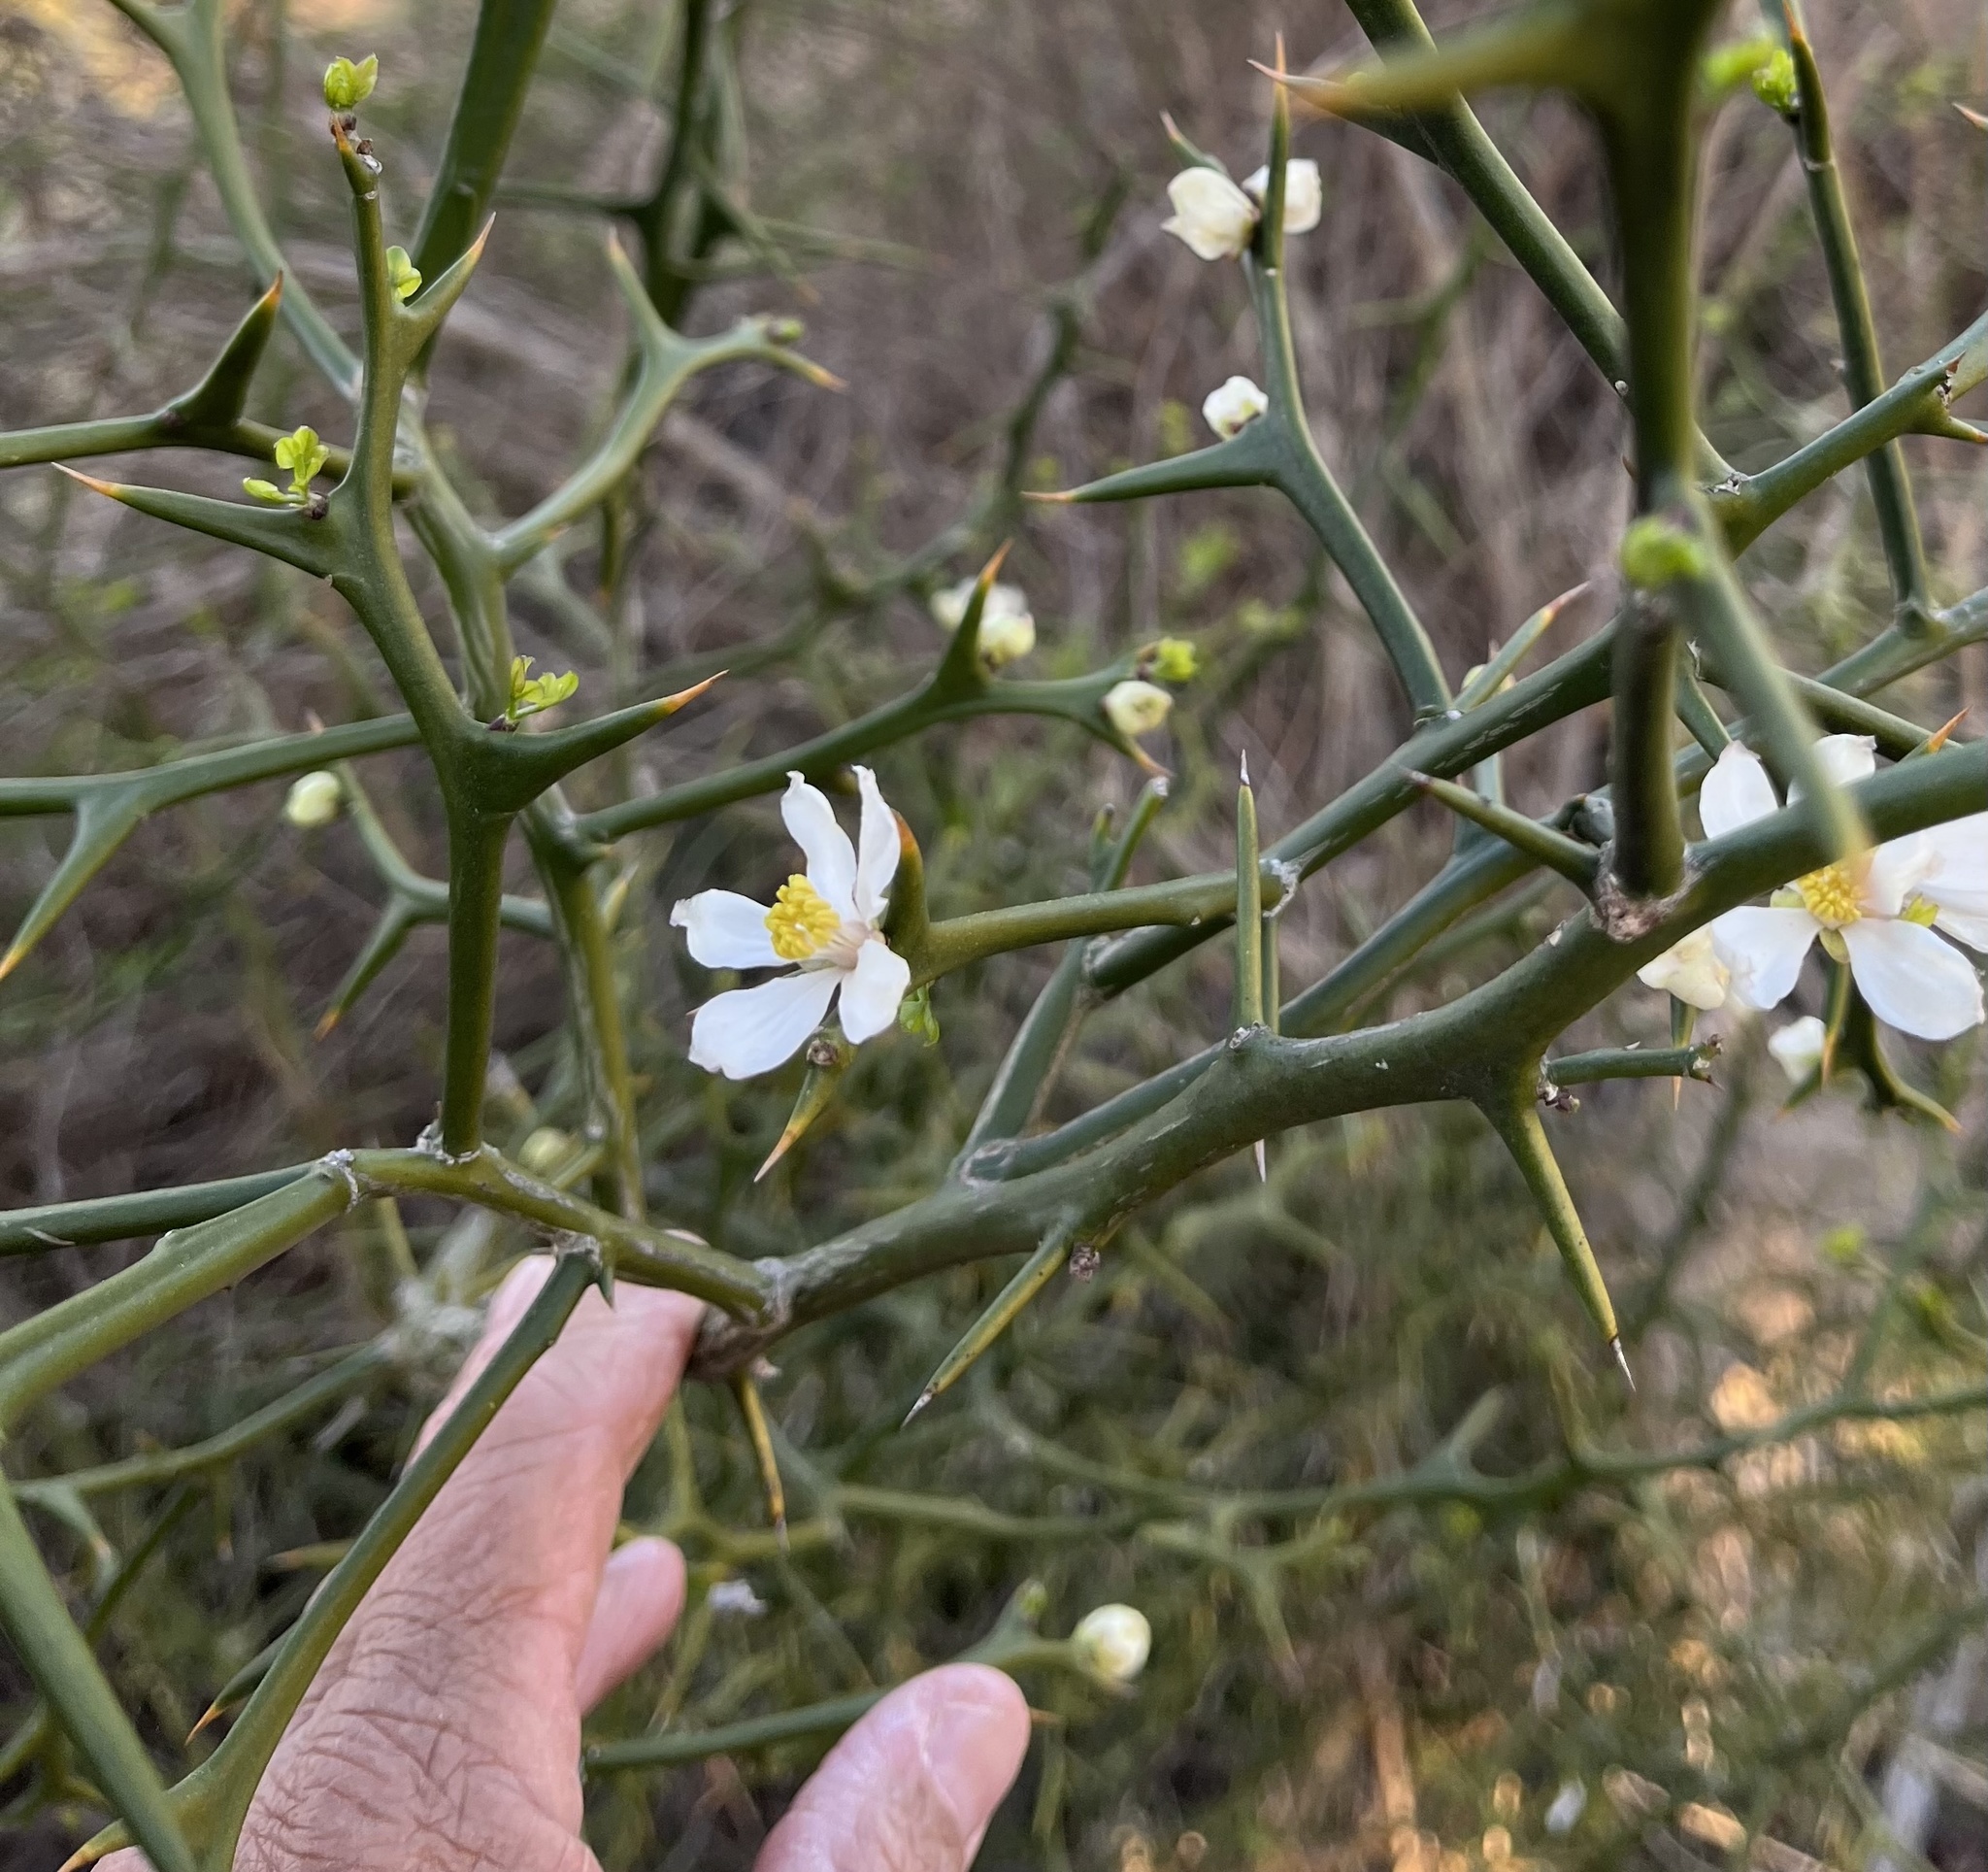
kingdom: Plantae
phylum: Tracheophyta
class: Magnoliopsida
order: Sapindales
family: Rutaceae
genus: Citrus
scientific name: Citrus trifoliata
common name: Japanese bitter-orange
